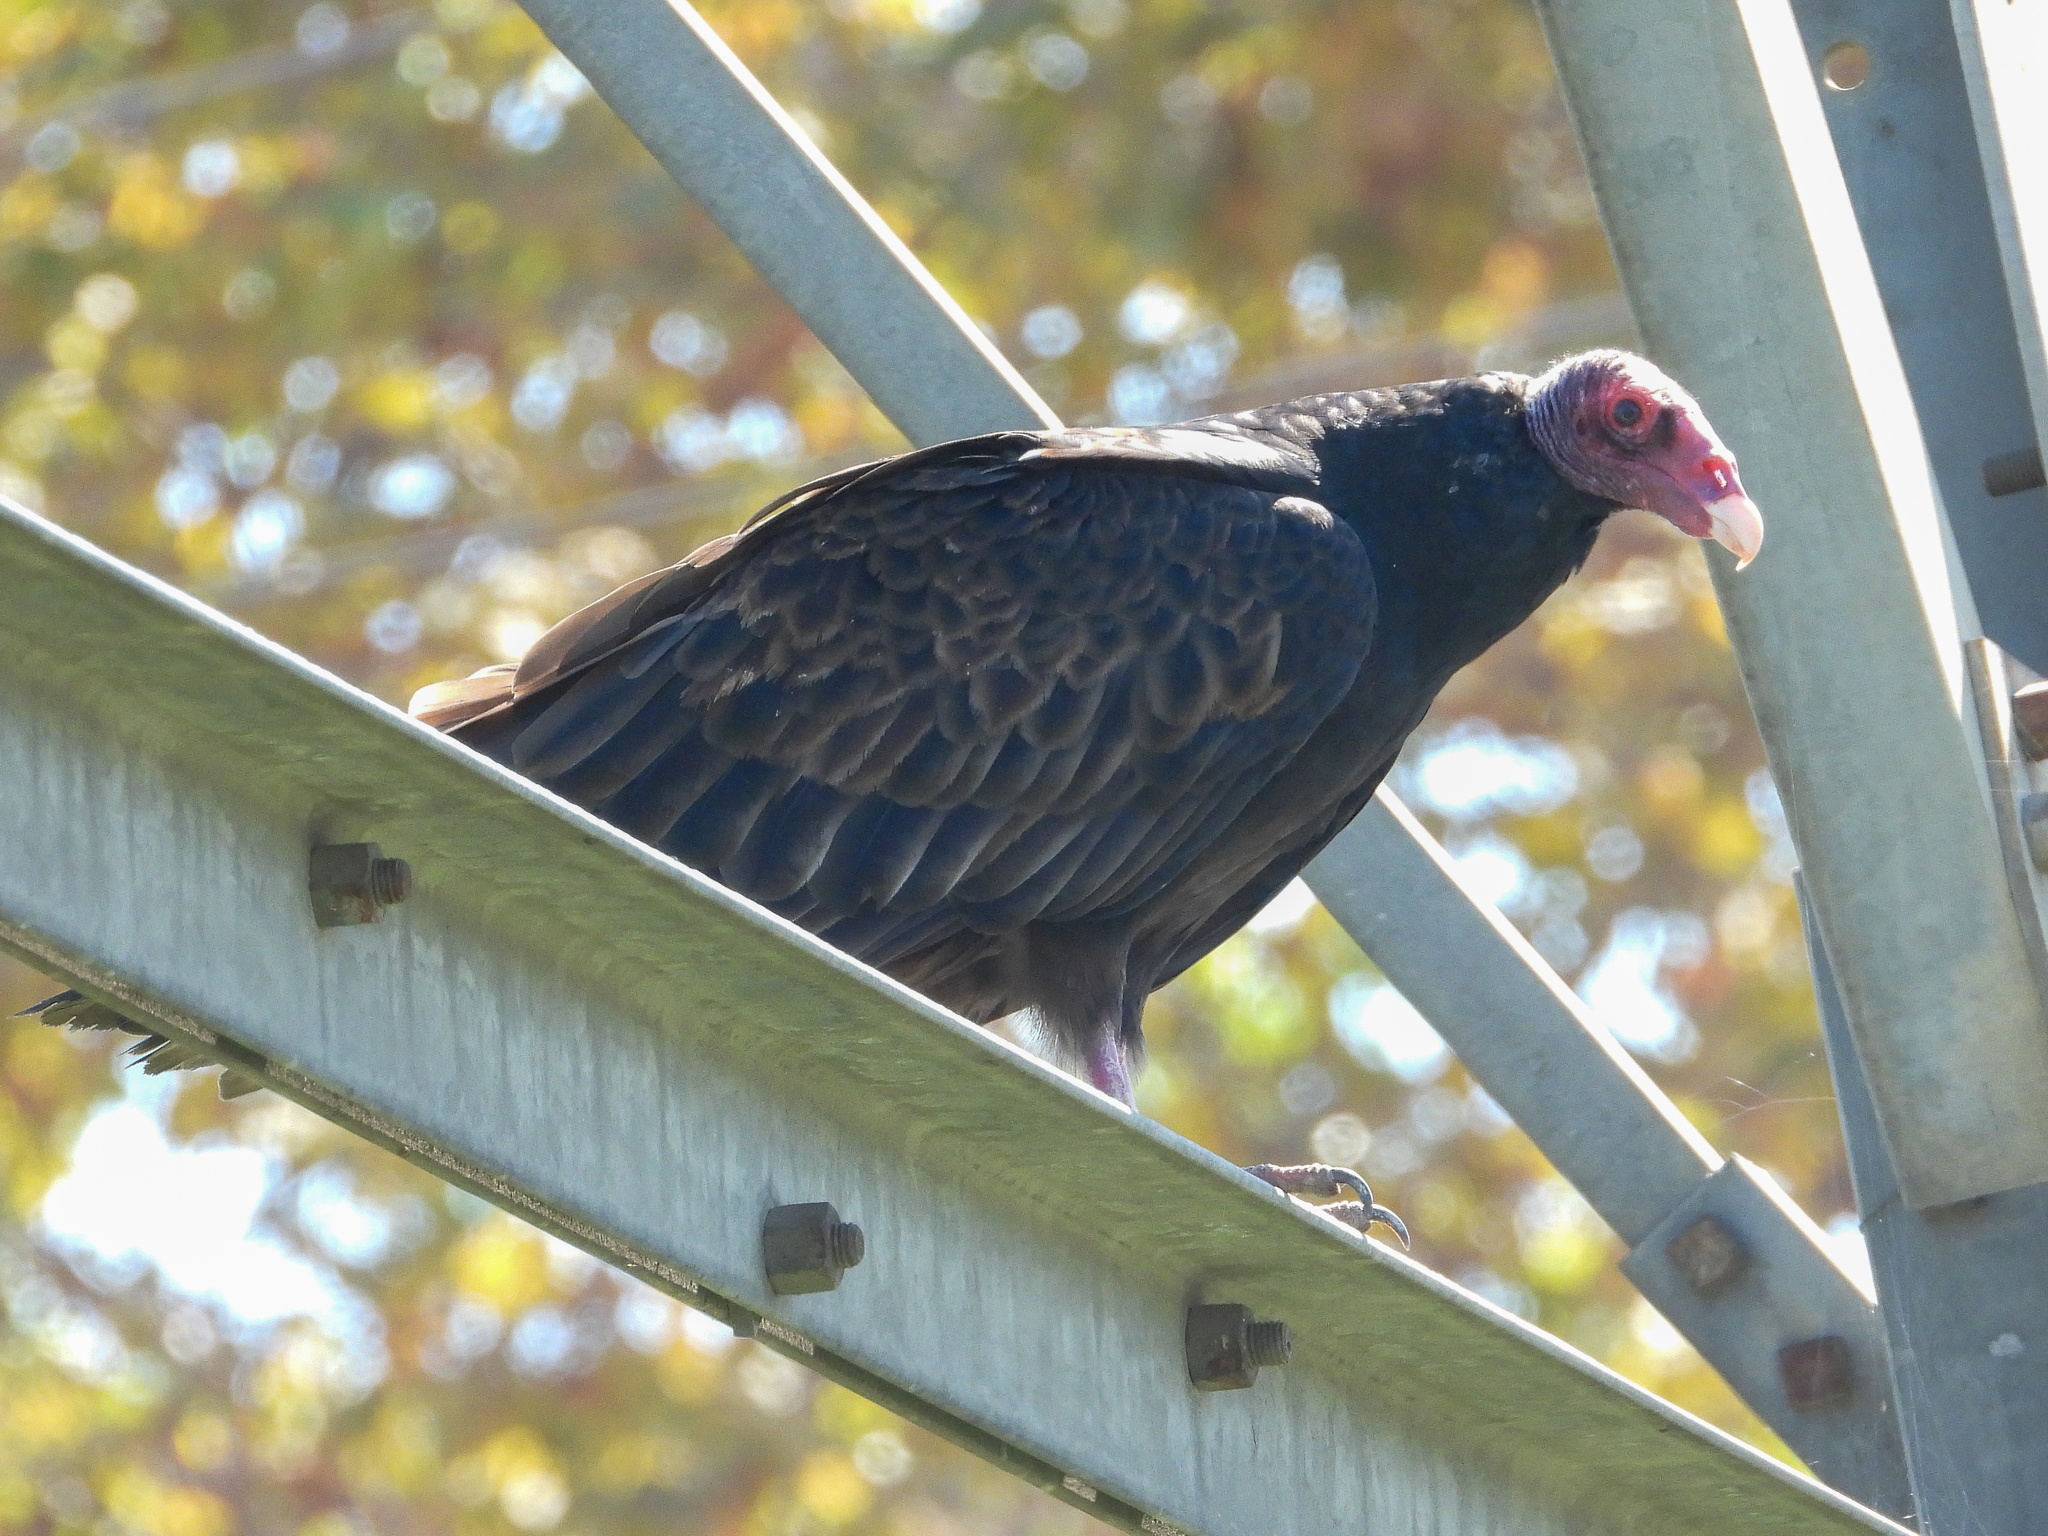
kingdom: Animalia
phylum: Chordata
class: Aves
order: Accipitriformes
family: Cathartidae
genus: Cathartes
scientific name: Cathartes aura
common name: Turkey vulture
